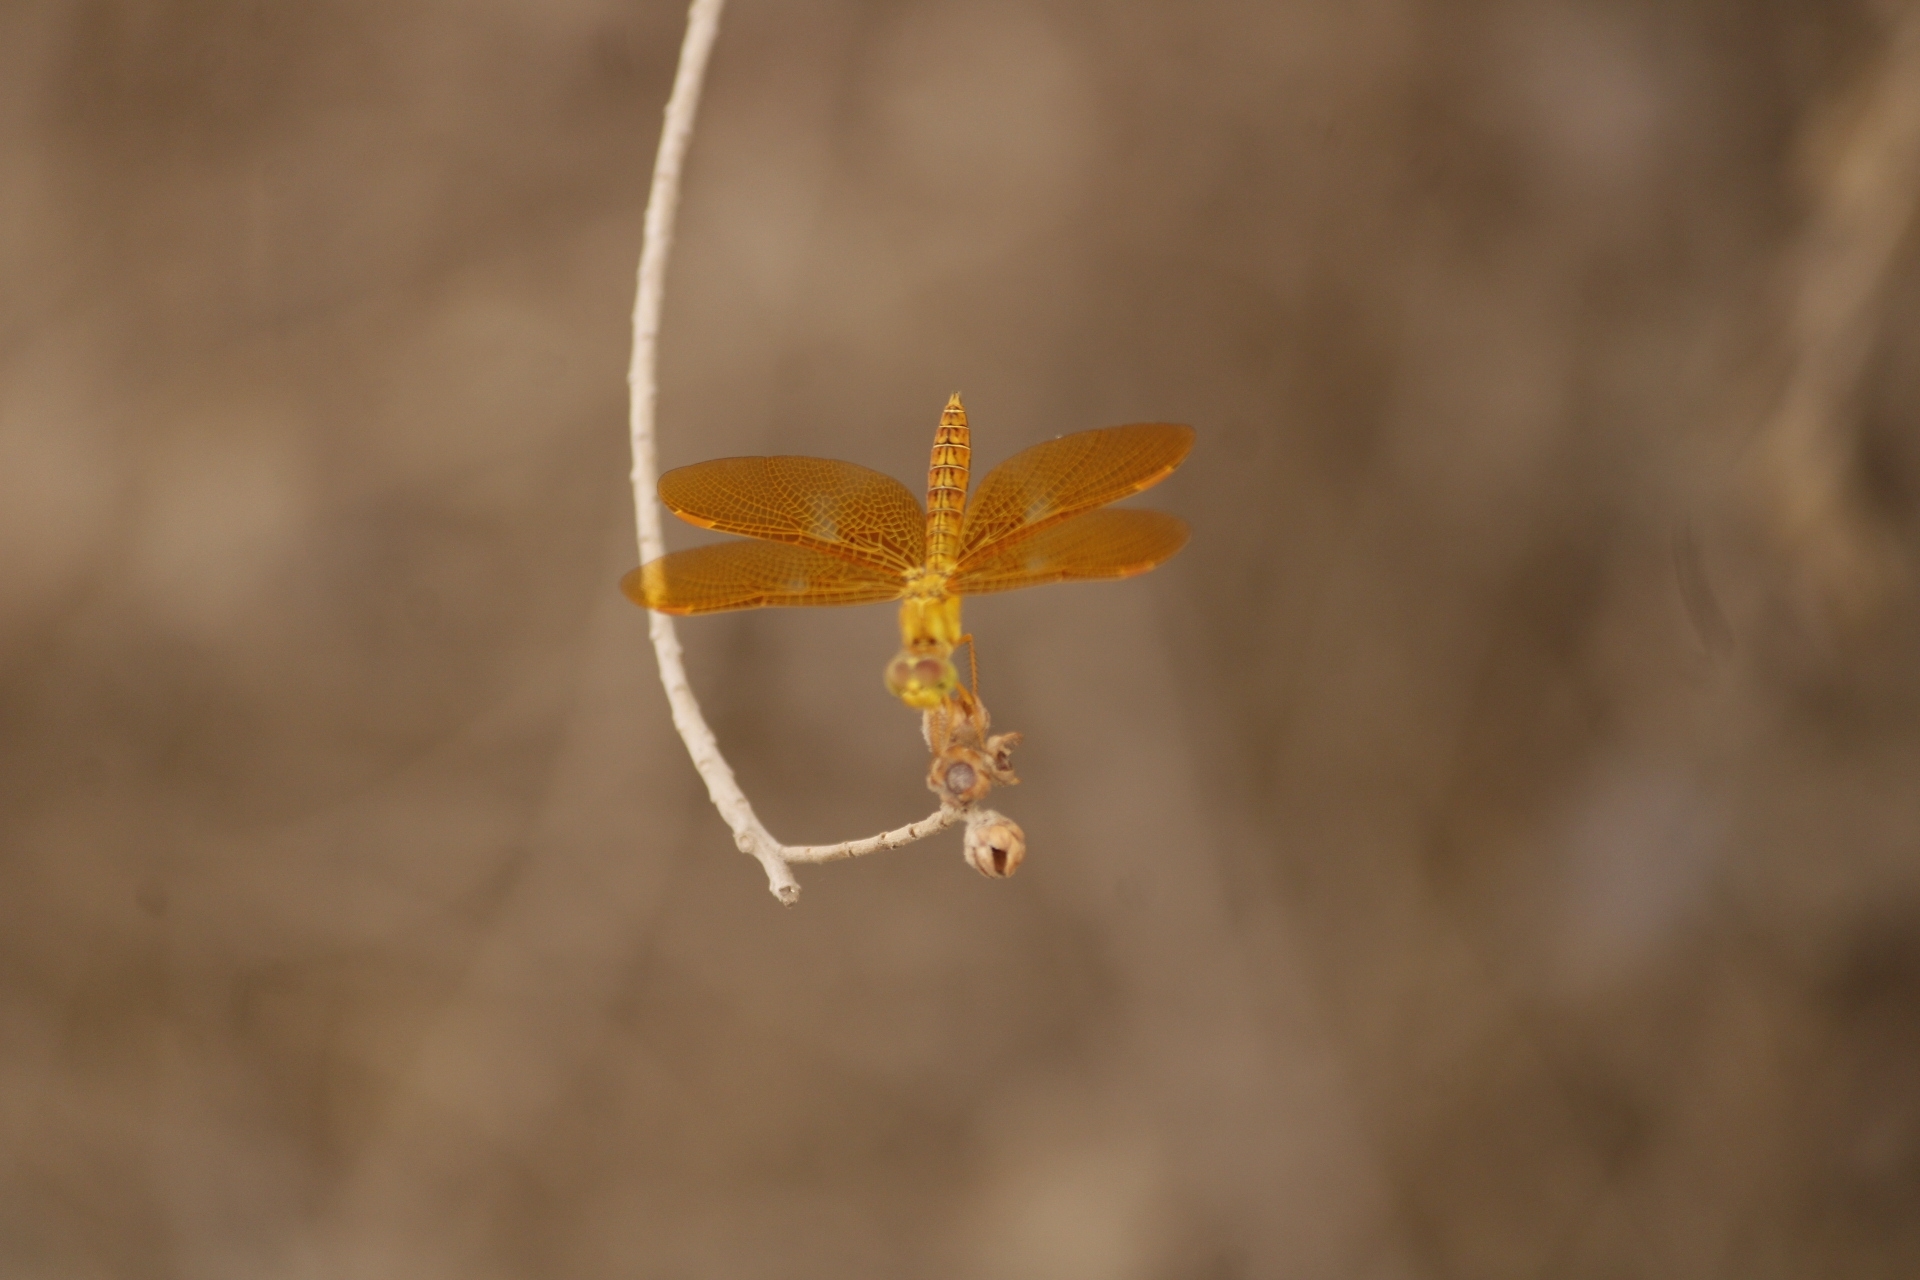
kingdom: Animalia
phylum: Arthropoda
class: Insecta
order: Odonata
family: Libellulidae
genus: Perithemis
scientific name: Perithemis intensa
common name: Mexican amberwing
